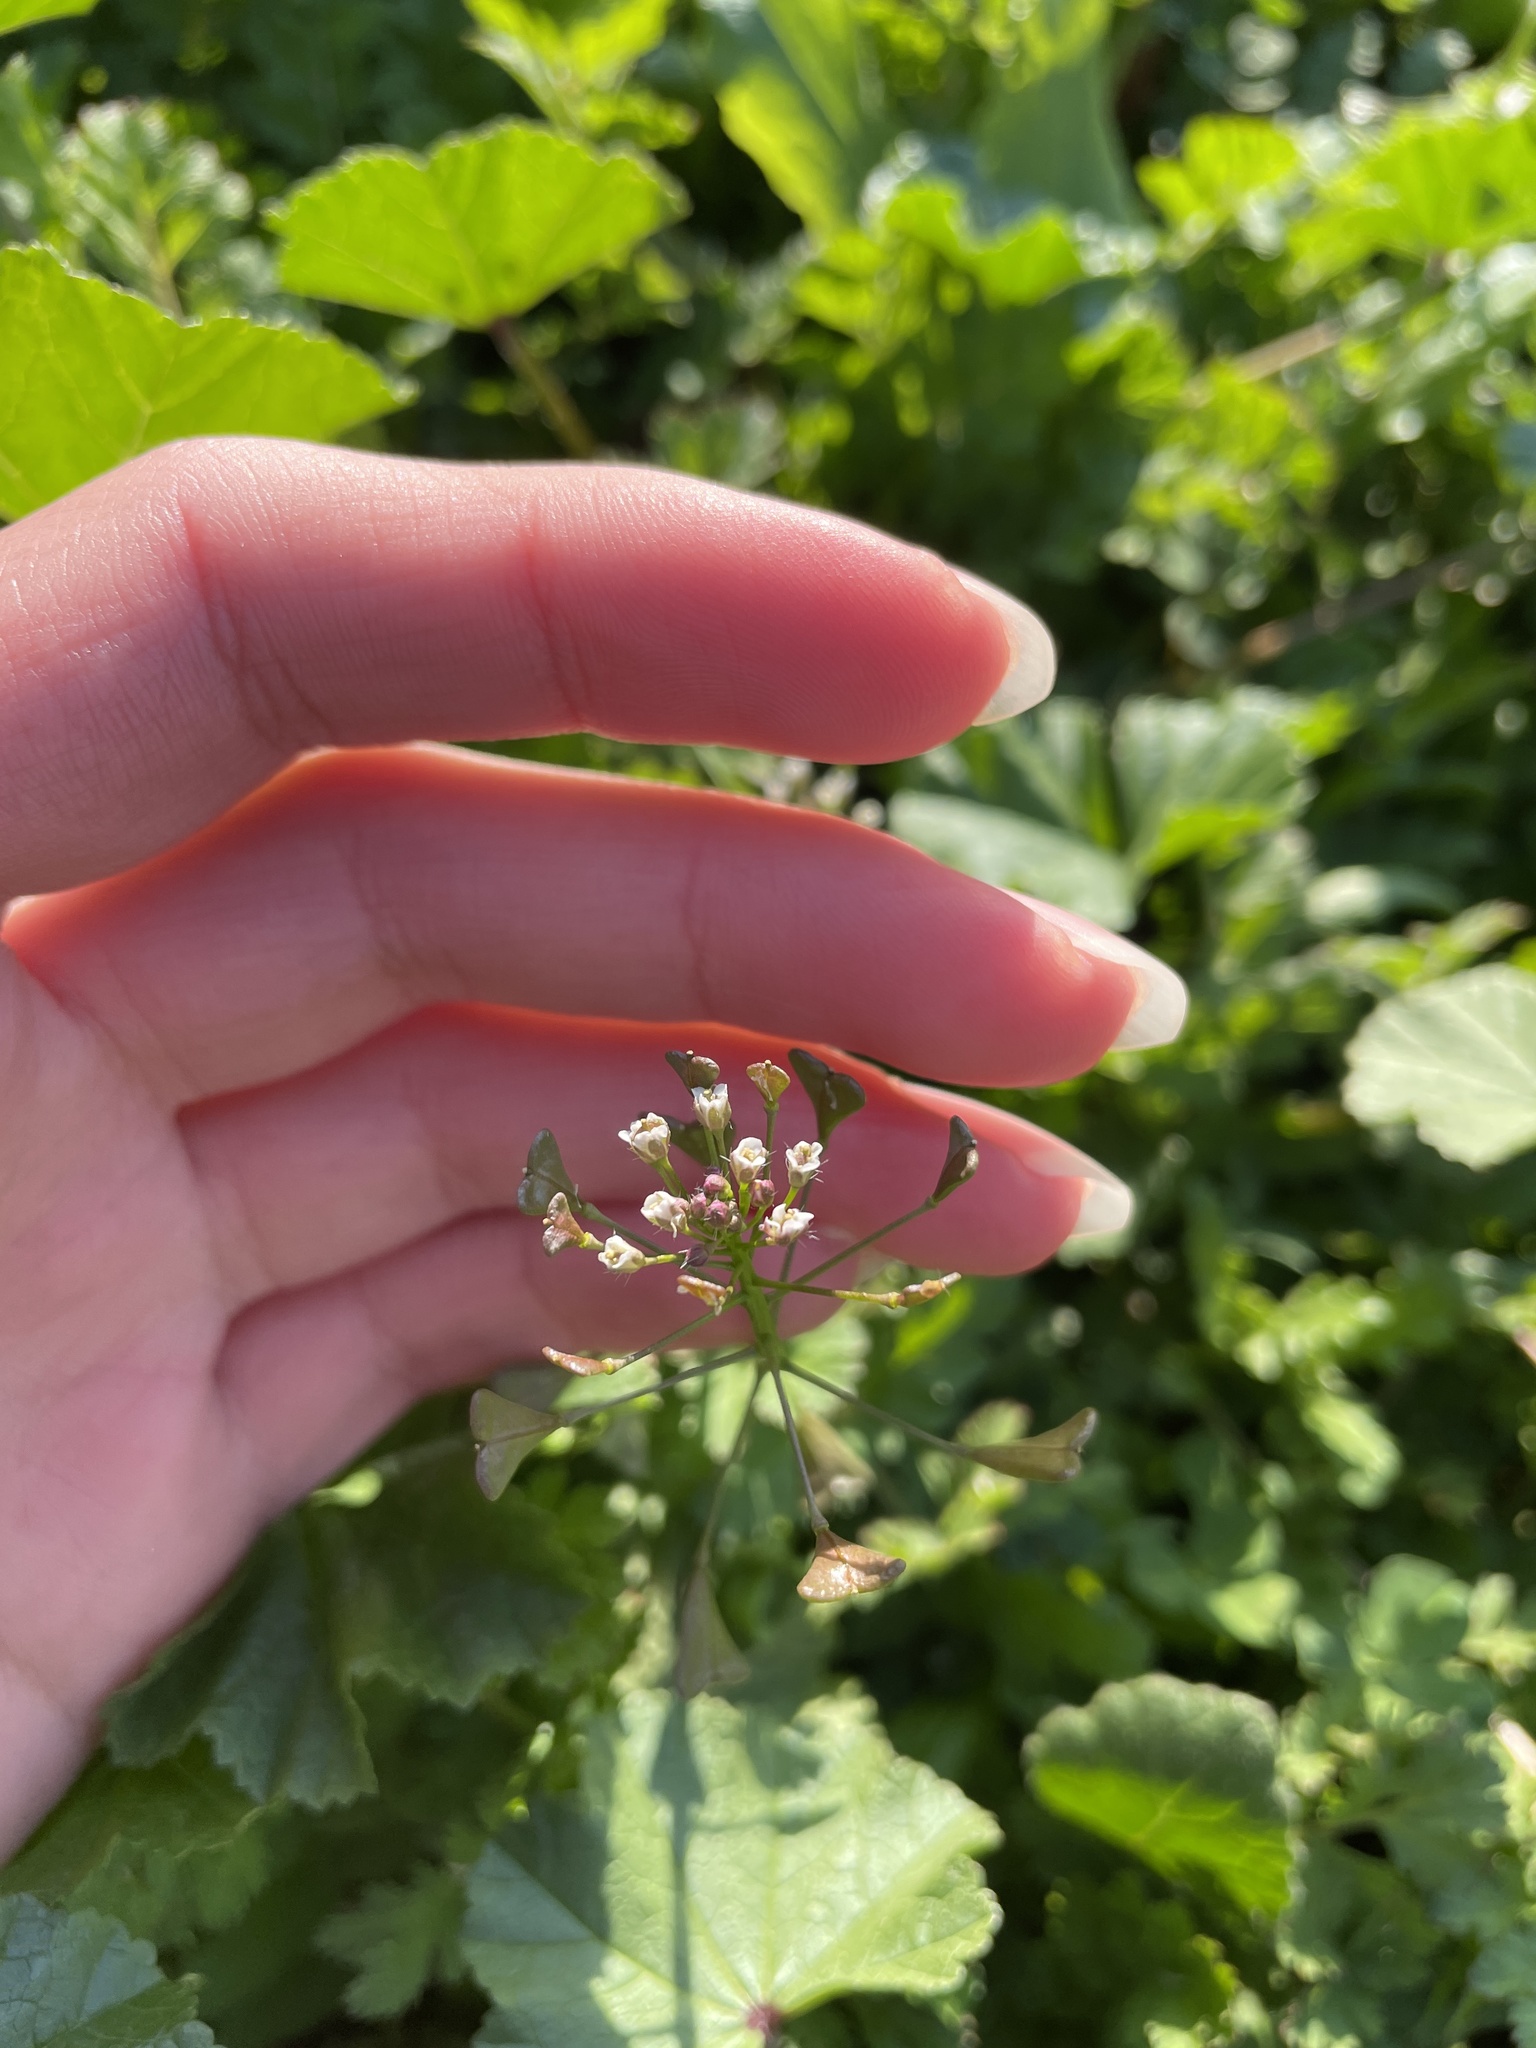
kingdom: Plantae
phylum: Tracheophyta
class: Magnoliopsida
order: Brassicales
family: Brassicaceae
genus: Capsella
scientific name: Capsella bursa-pastoris
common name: Shepherd's purse
